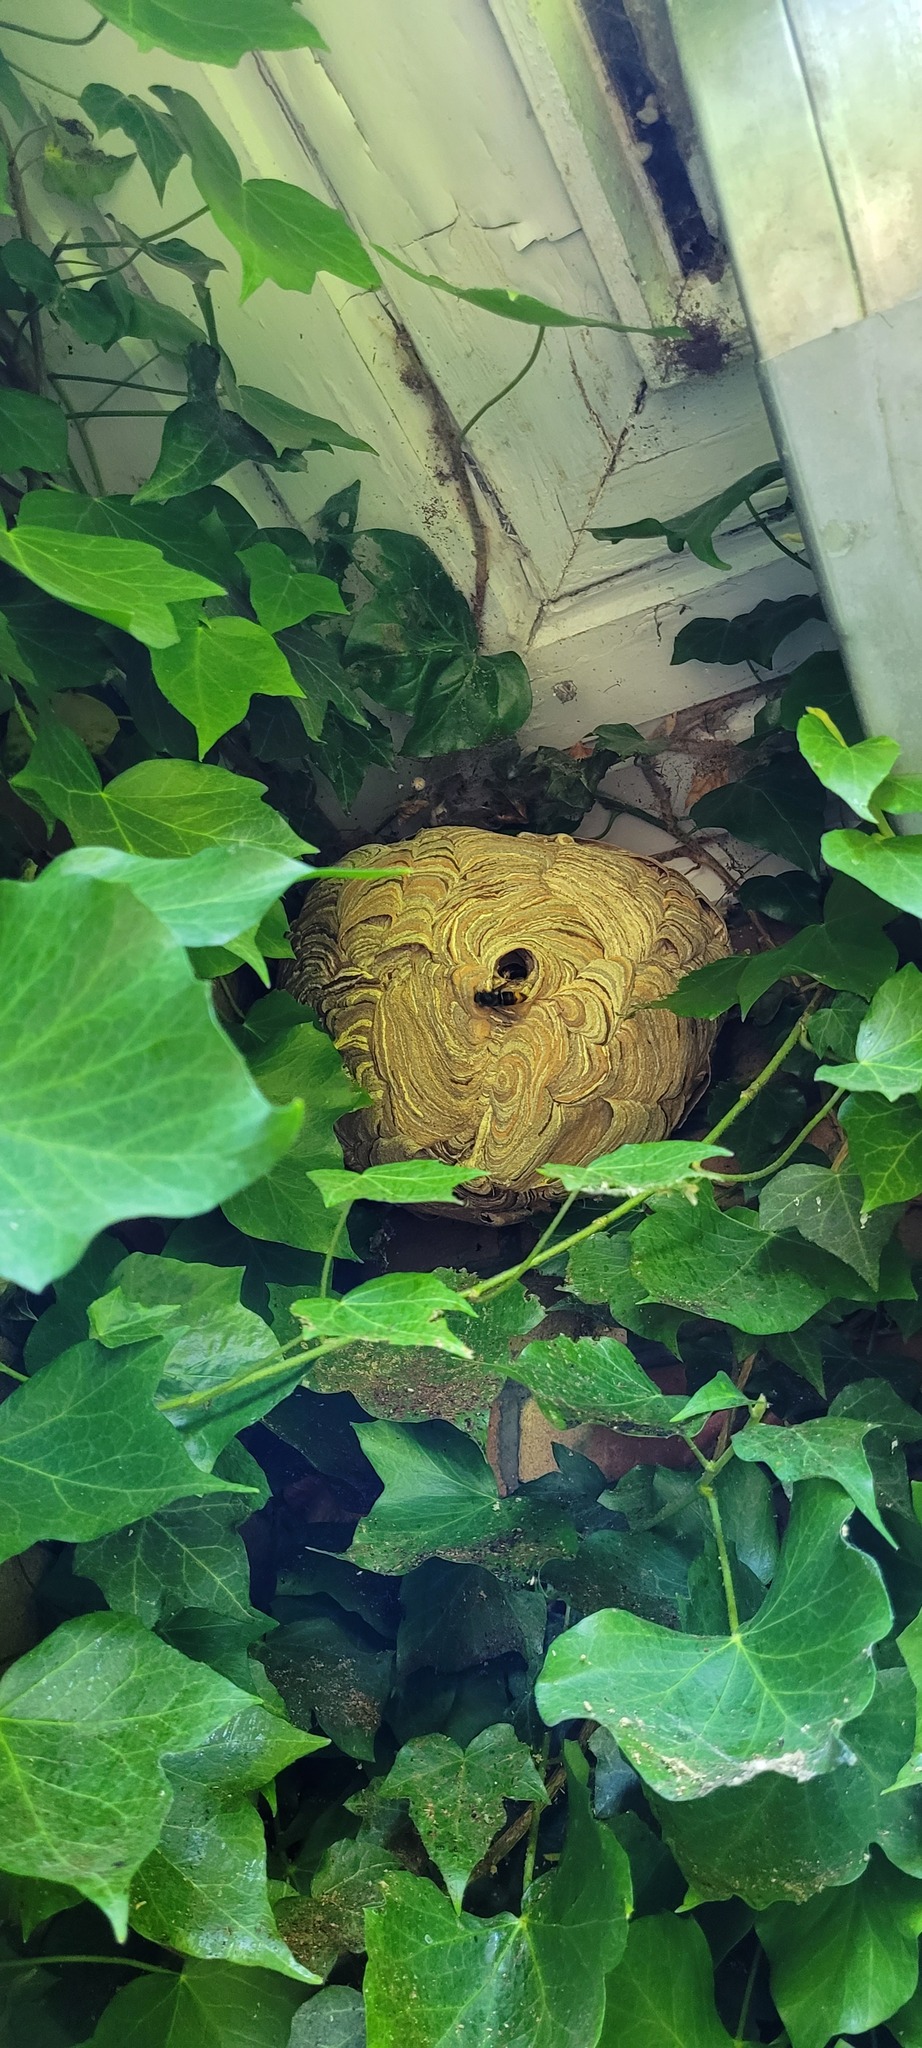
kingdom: Animalia
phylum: Arthropoda
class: Insecta
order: Hymenoptera
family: Vespidae
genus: Vespa
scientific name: Vespa velutina
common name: Asian hornet
